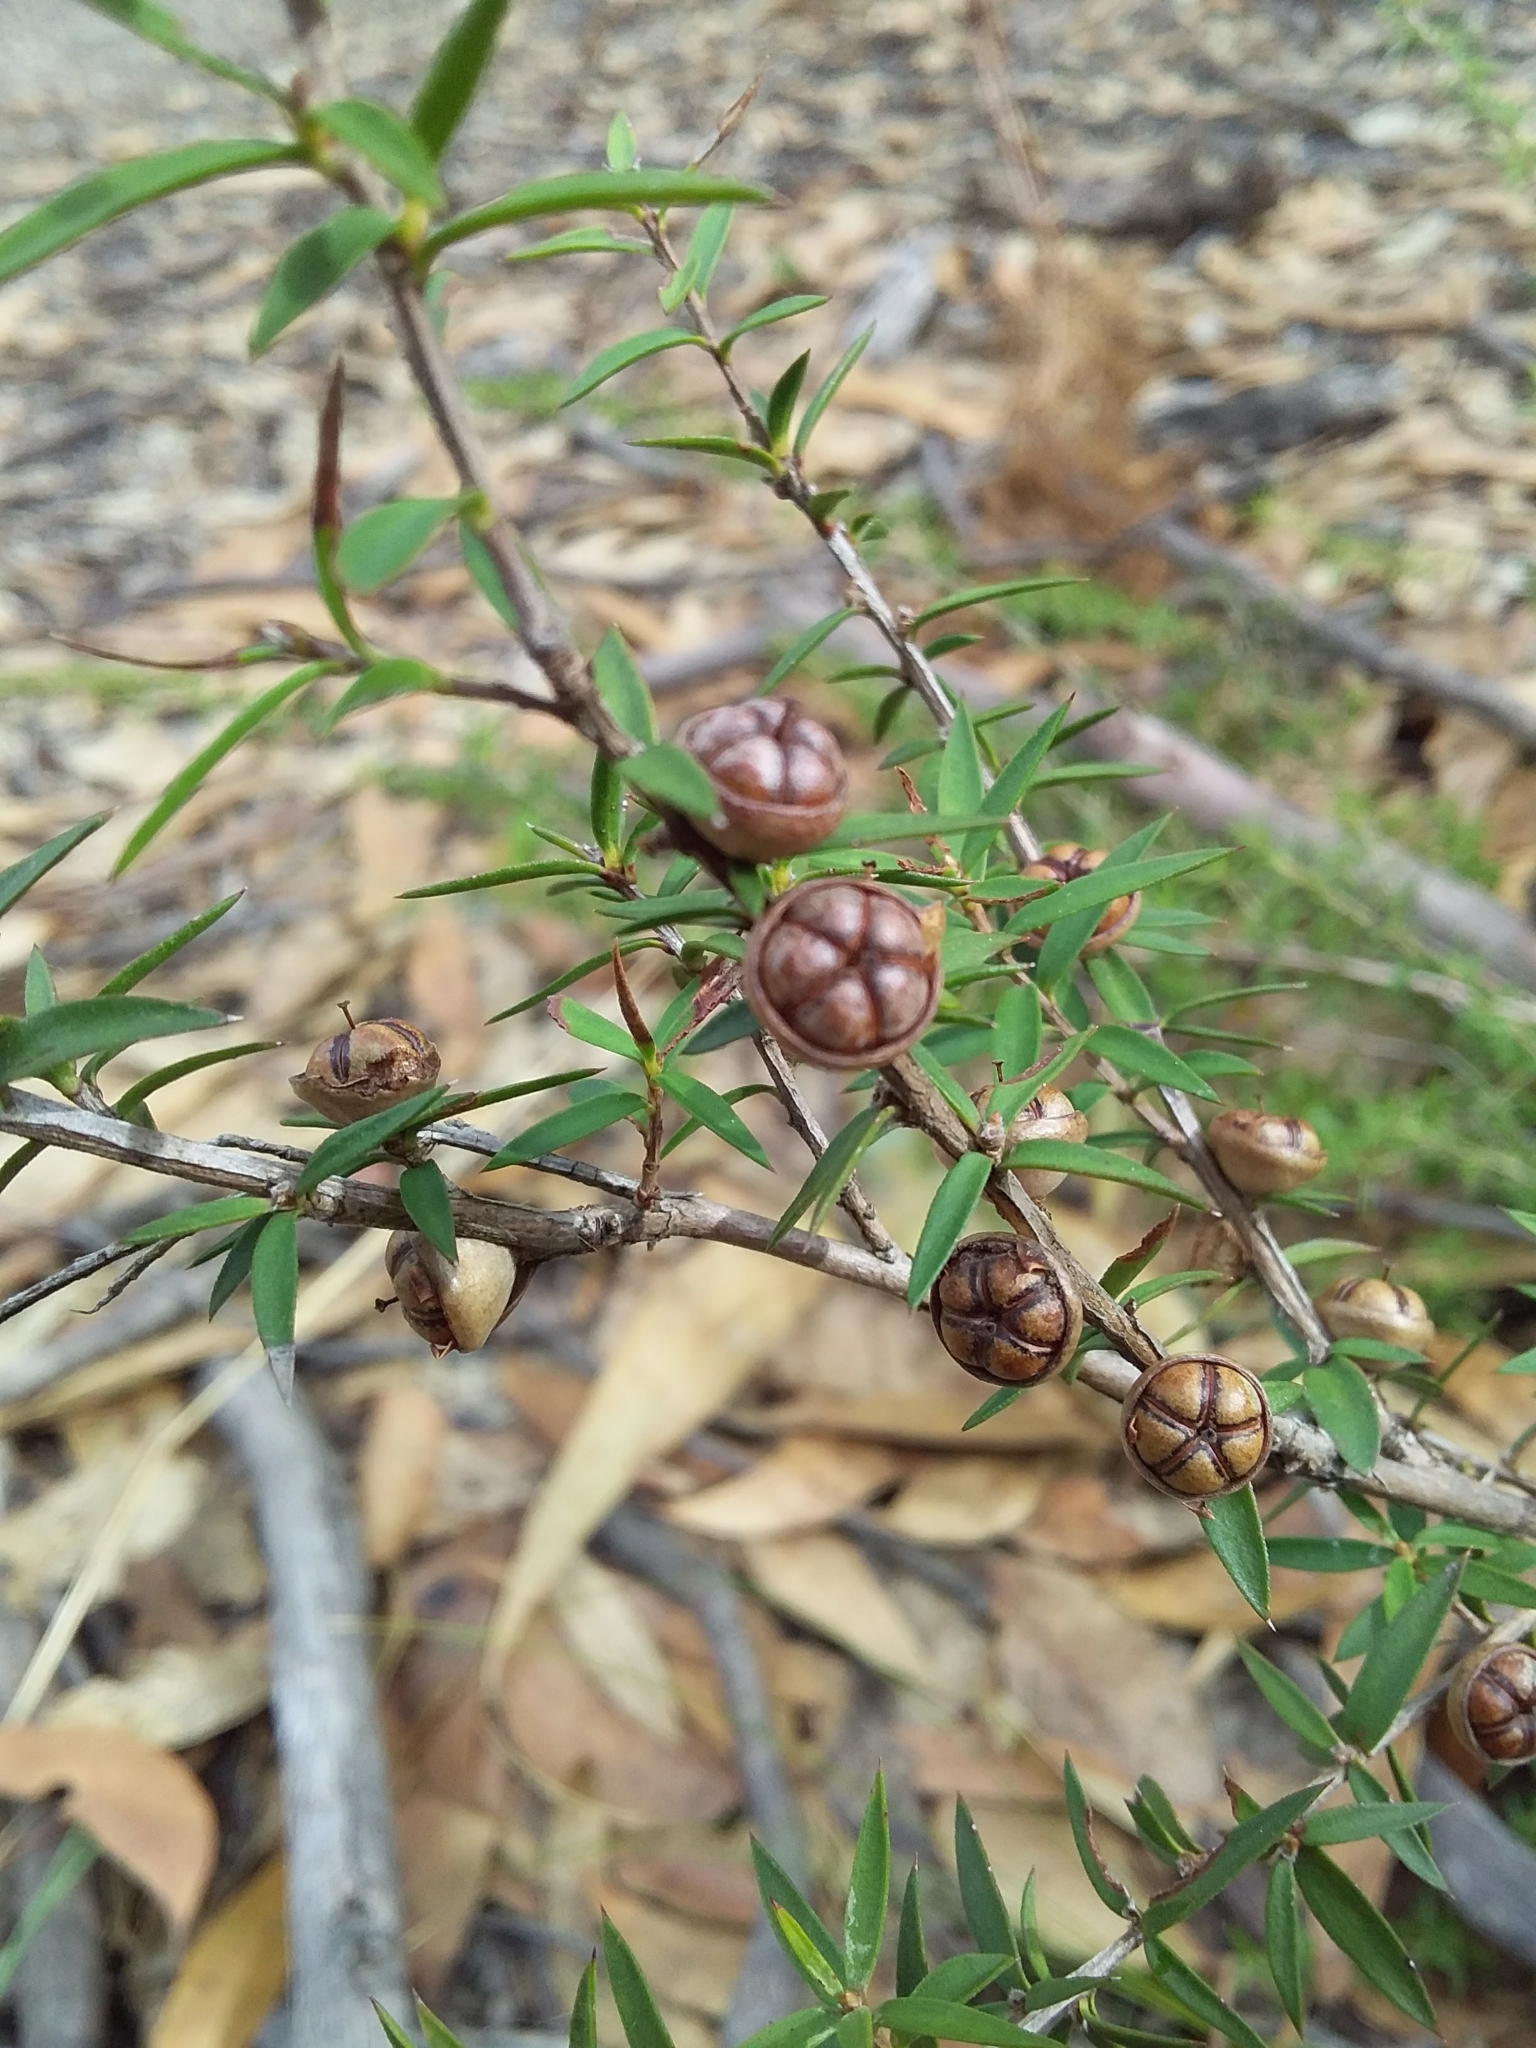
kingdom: Plantae
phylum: Tracheophyta
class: Magnoliopsida
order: Myrtales
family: Myrtaceae
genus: Leptospermum
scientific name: Leptospermum continentale
